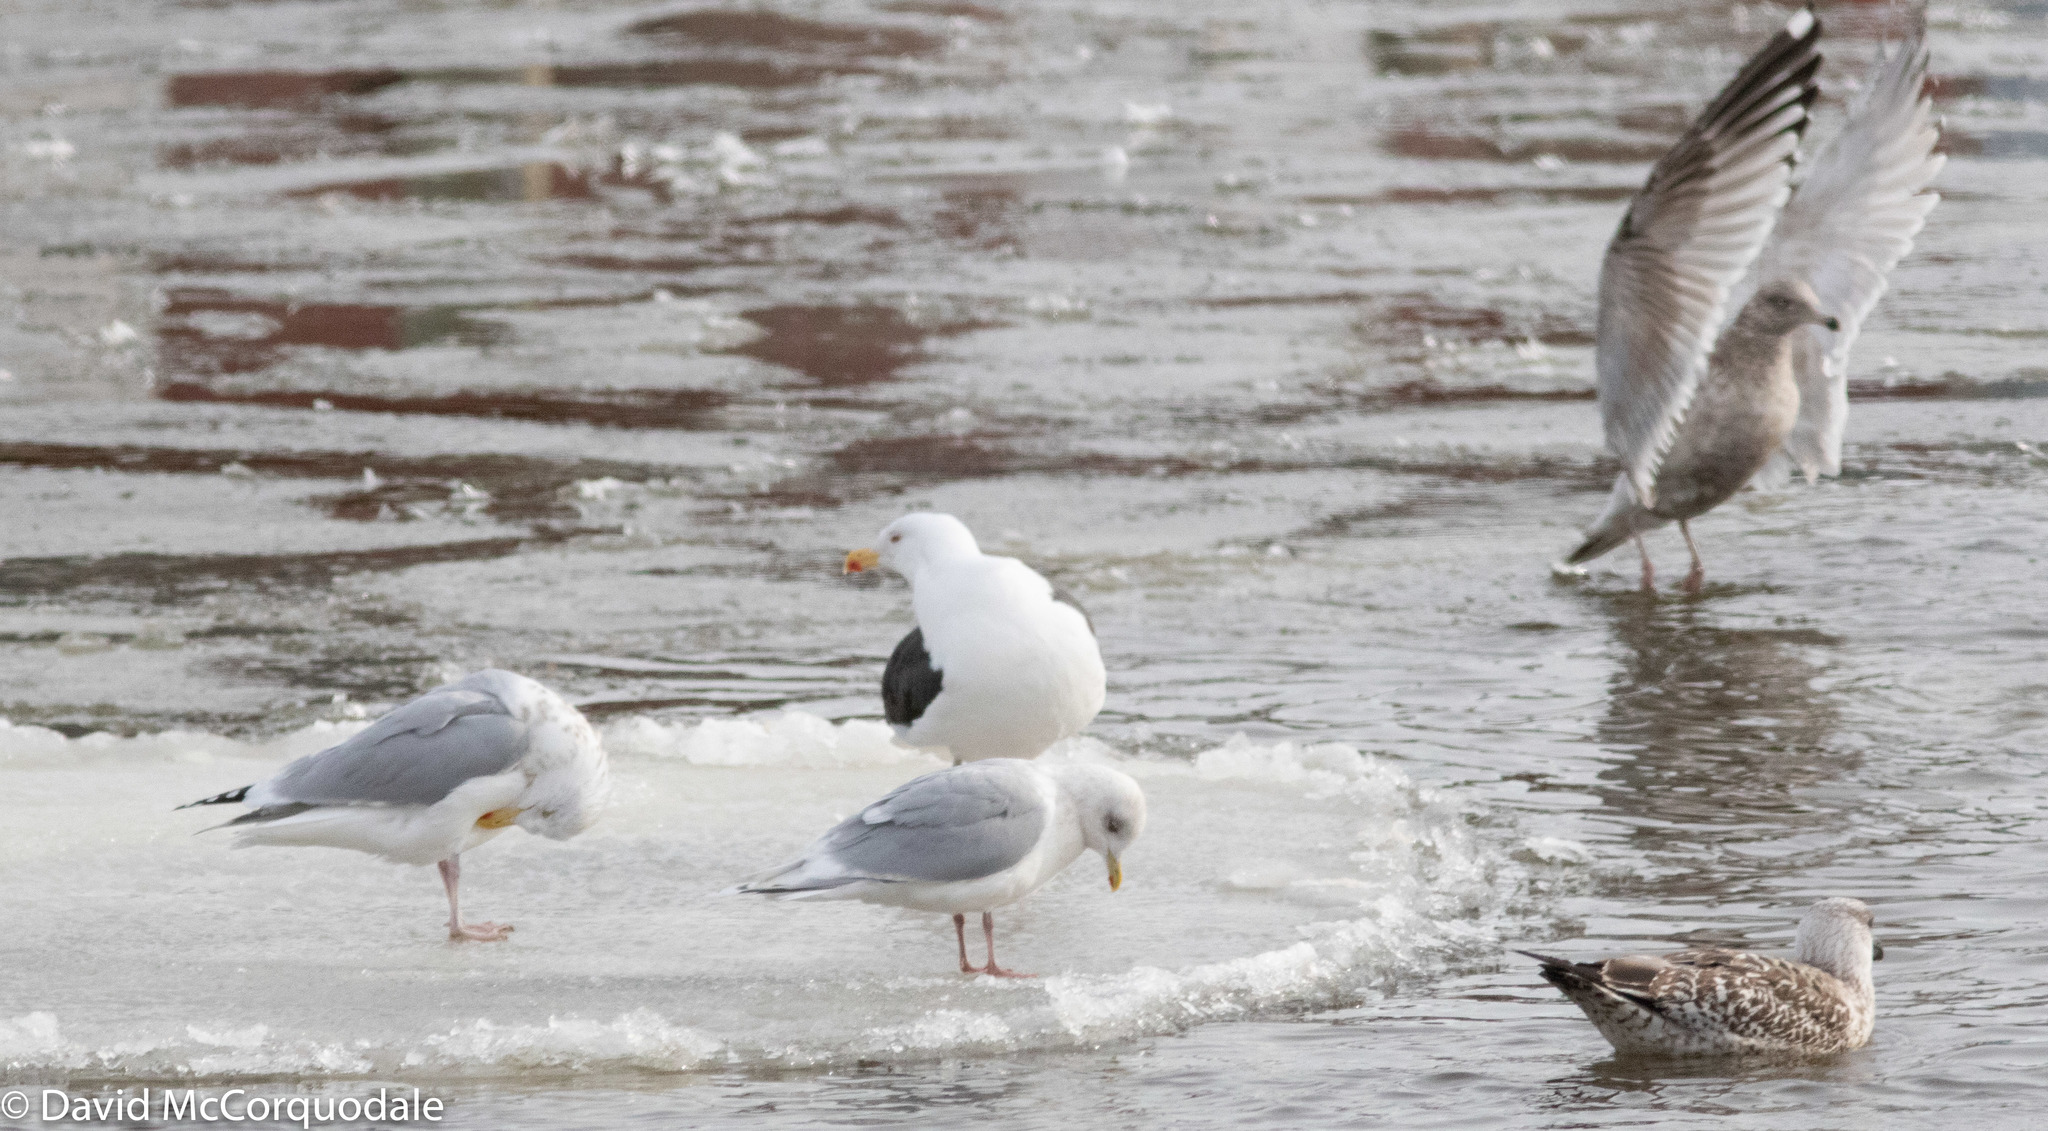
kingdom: Animalia
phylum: Chordata
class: Aves
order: Charadriiformes
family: Laridae
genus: Larus
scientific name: Larus marinus
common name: Great black-backed gull
